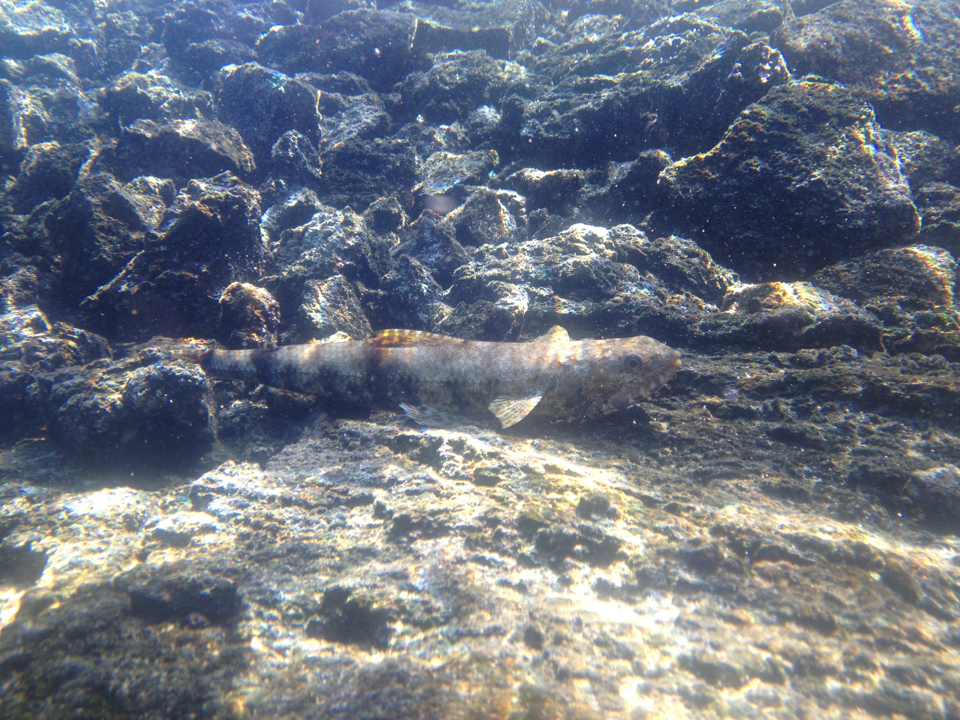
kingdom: Animalia
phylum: Chordata
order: Aulopiformes
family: Synodontidae
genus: Synodus
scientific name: Synodus variegatus
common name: Variegated lizardfish
